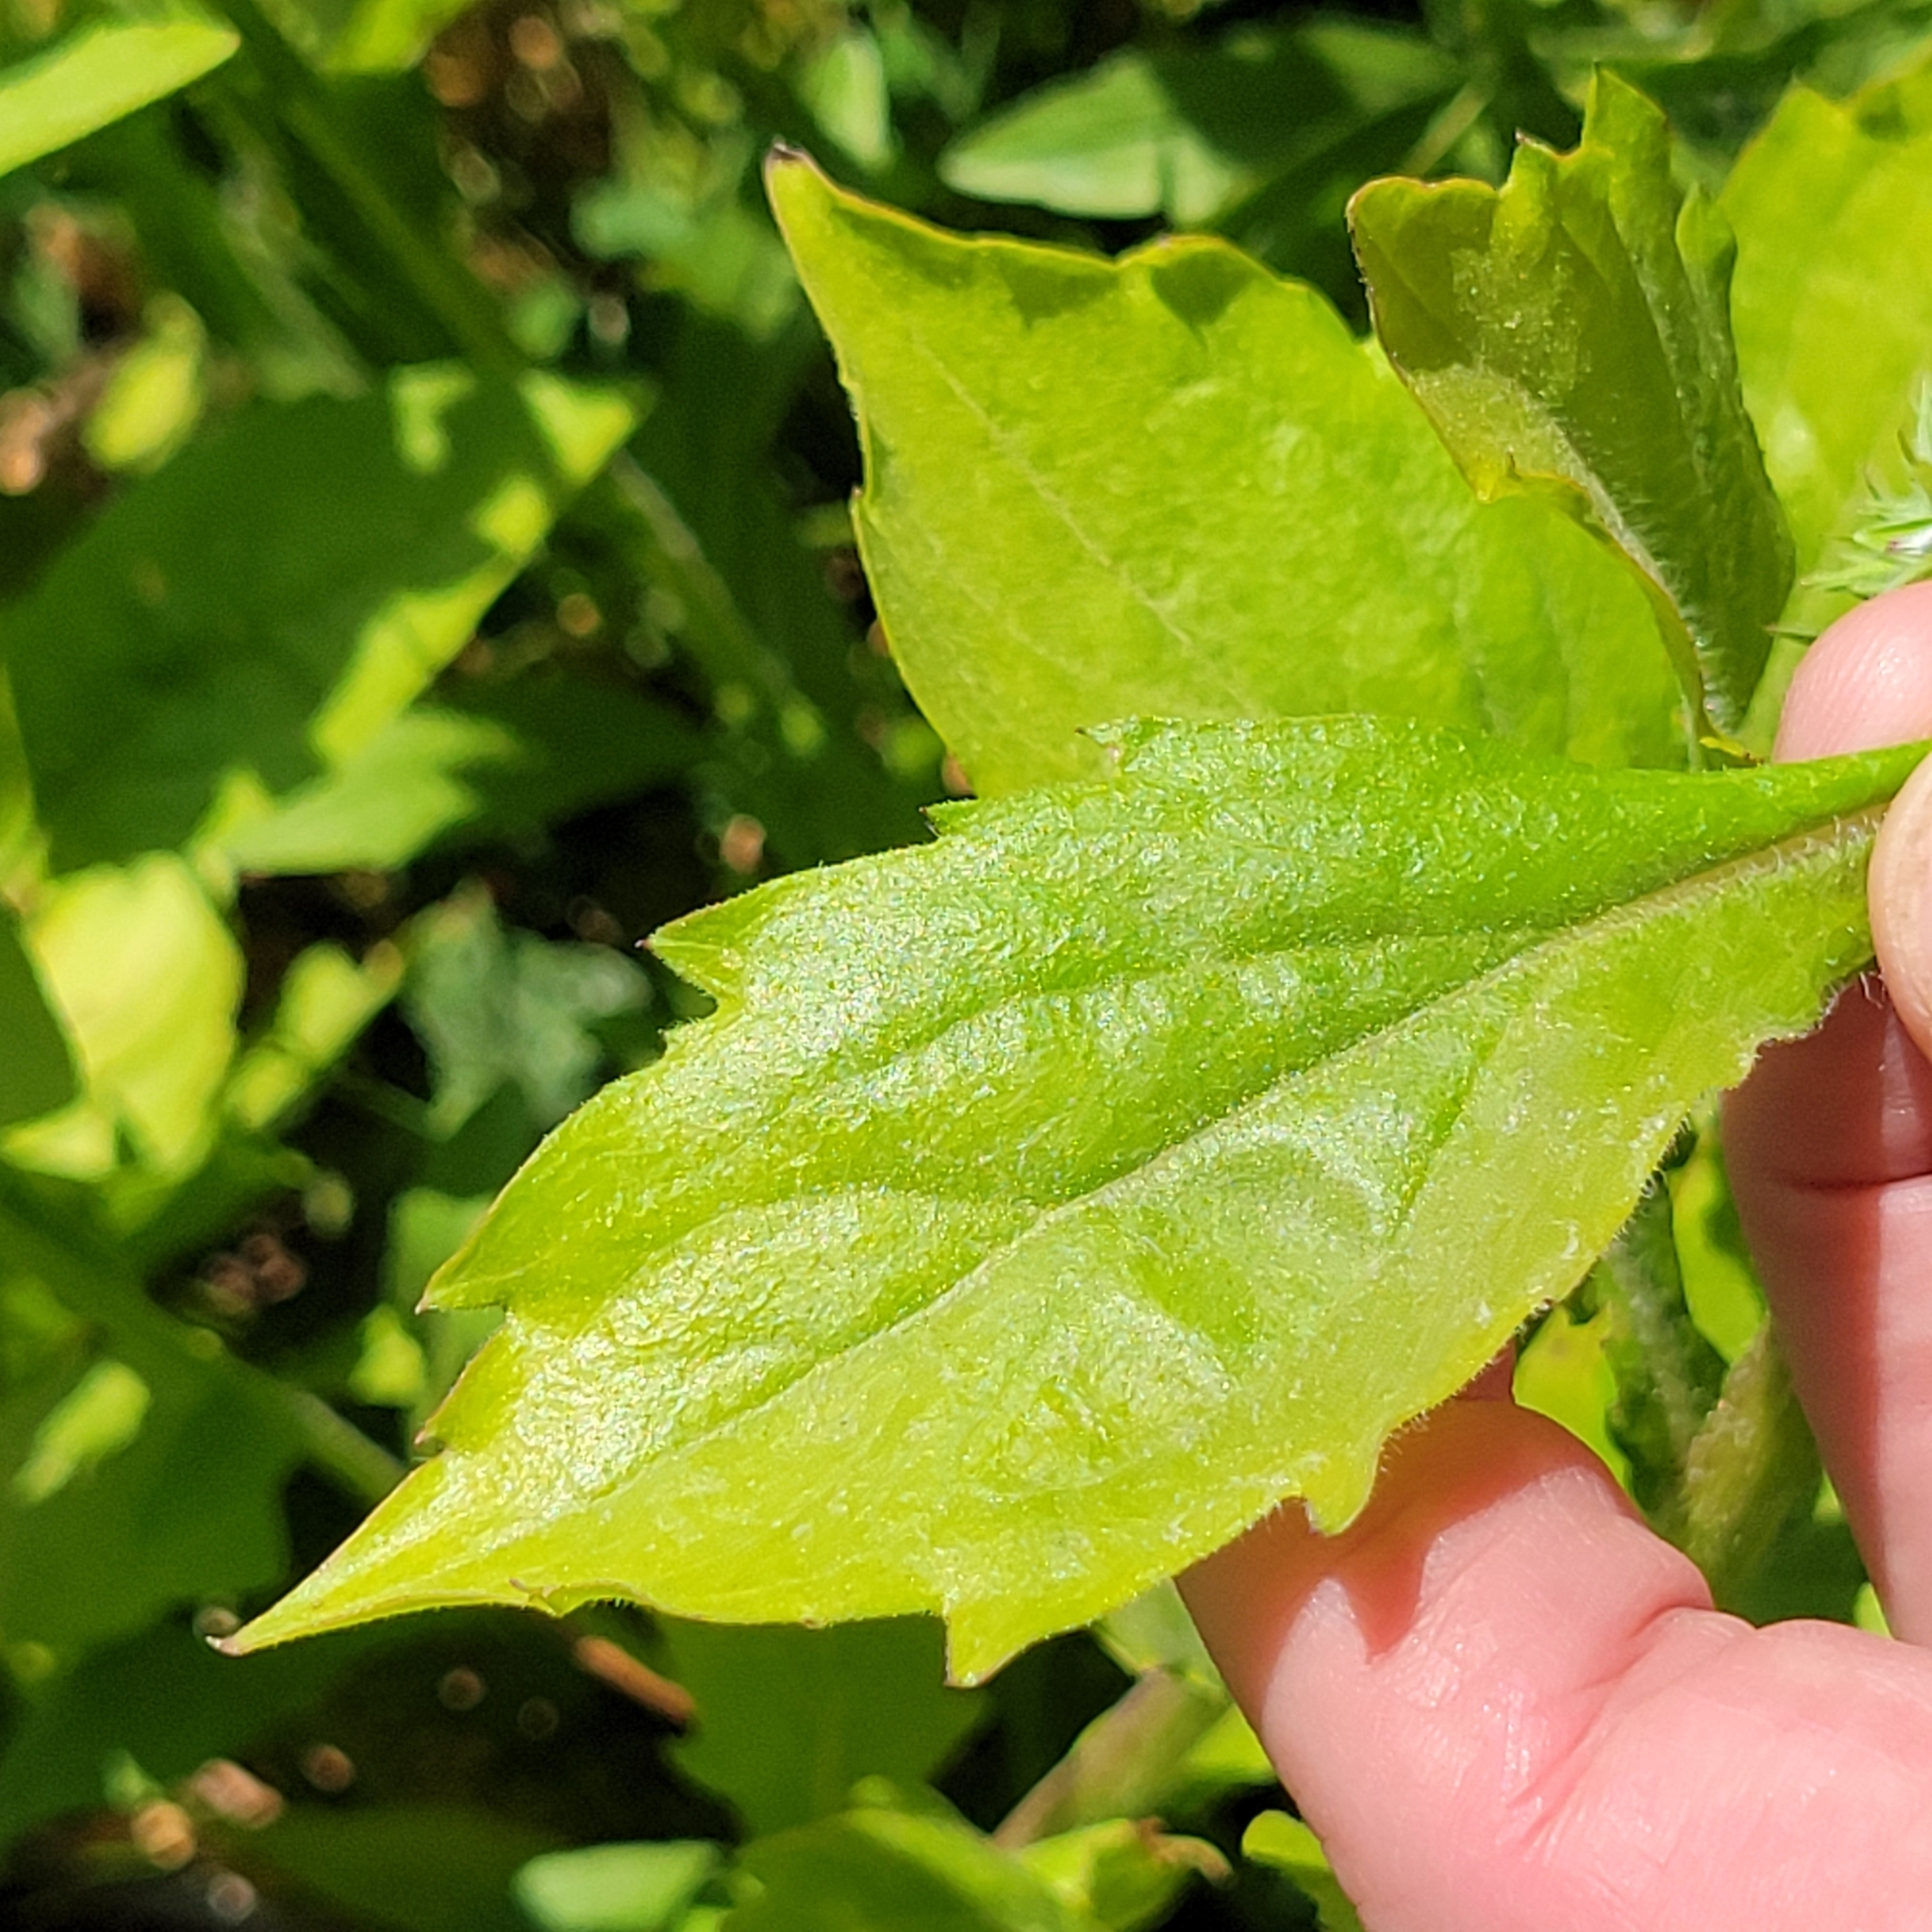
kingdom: Plantae
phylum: Tracheophyta
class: Magnoliopsida
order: Asterales
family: Asteraceae
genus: Erigeron
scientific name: Erigeron annuus
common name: Tall fleabane
